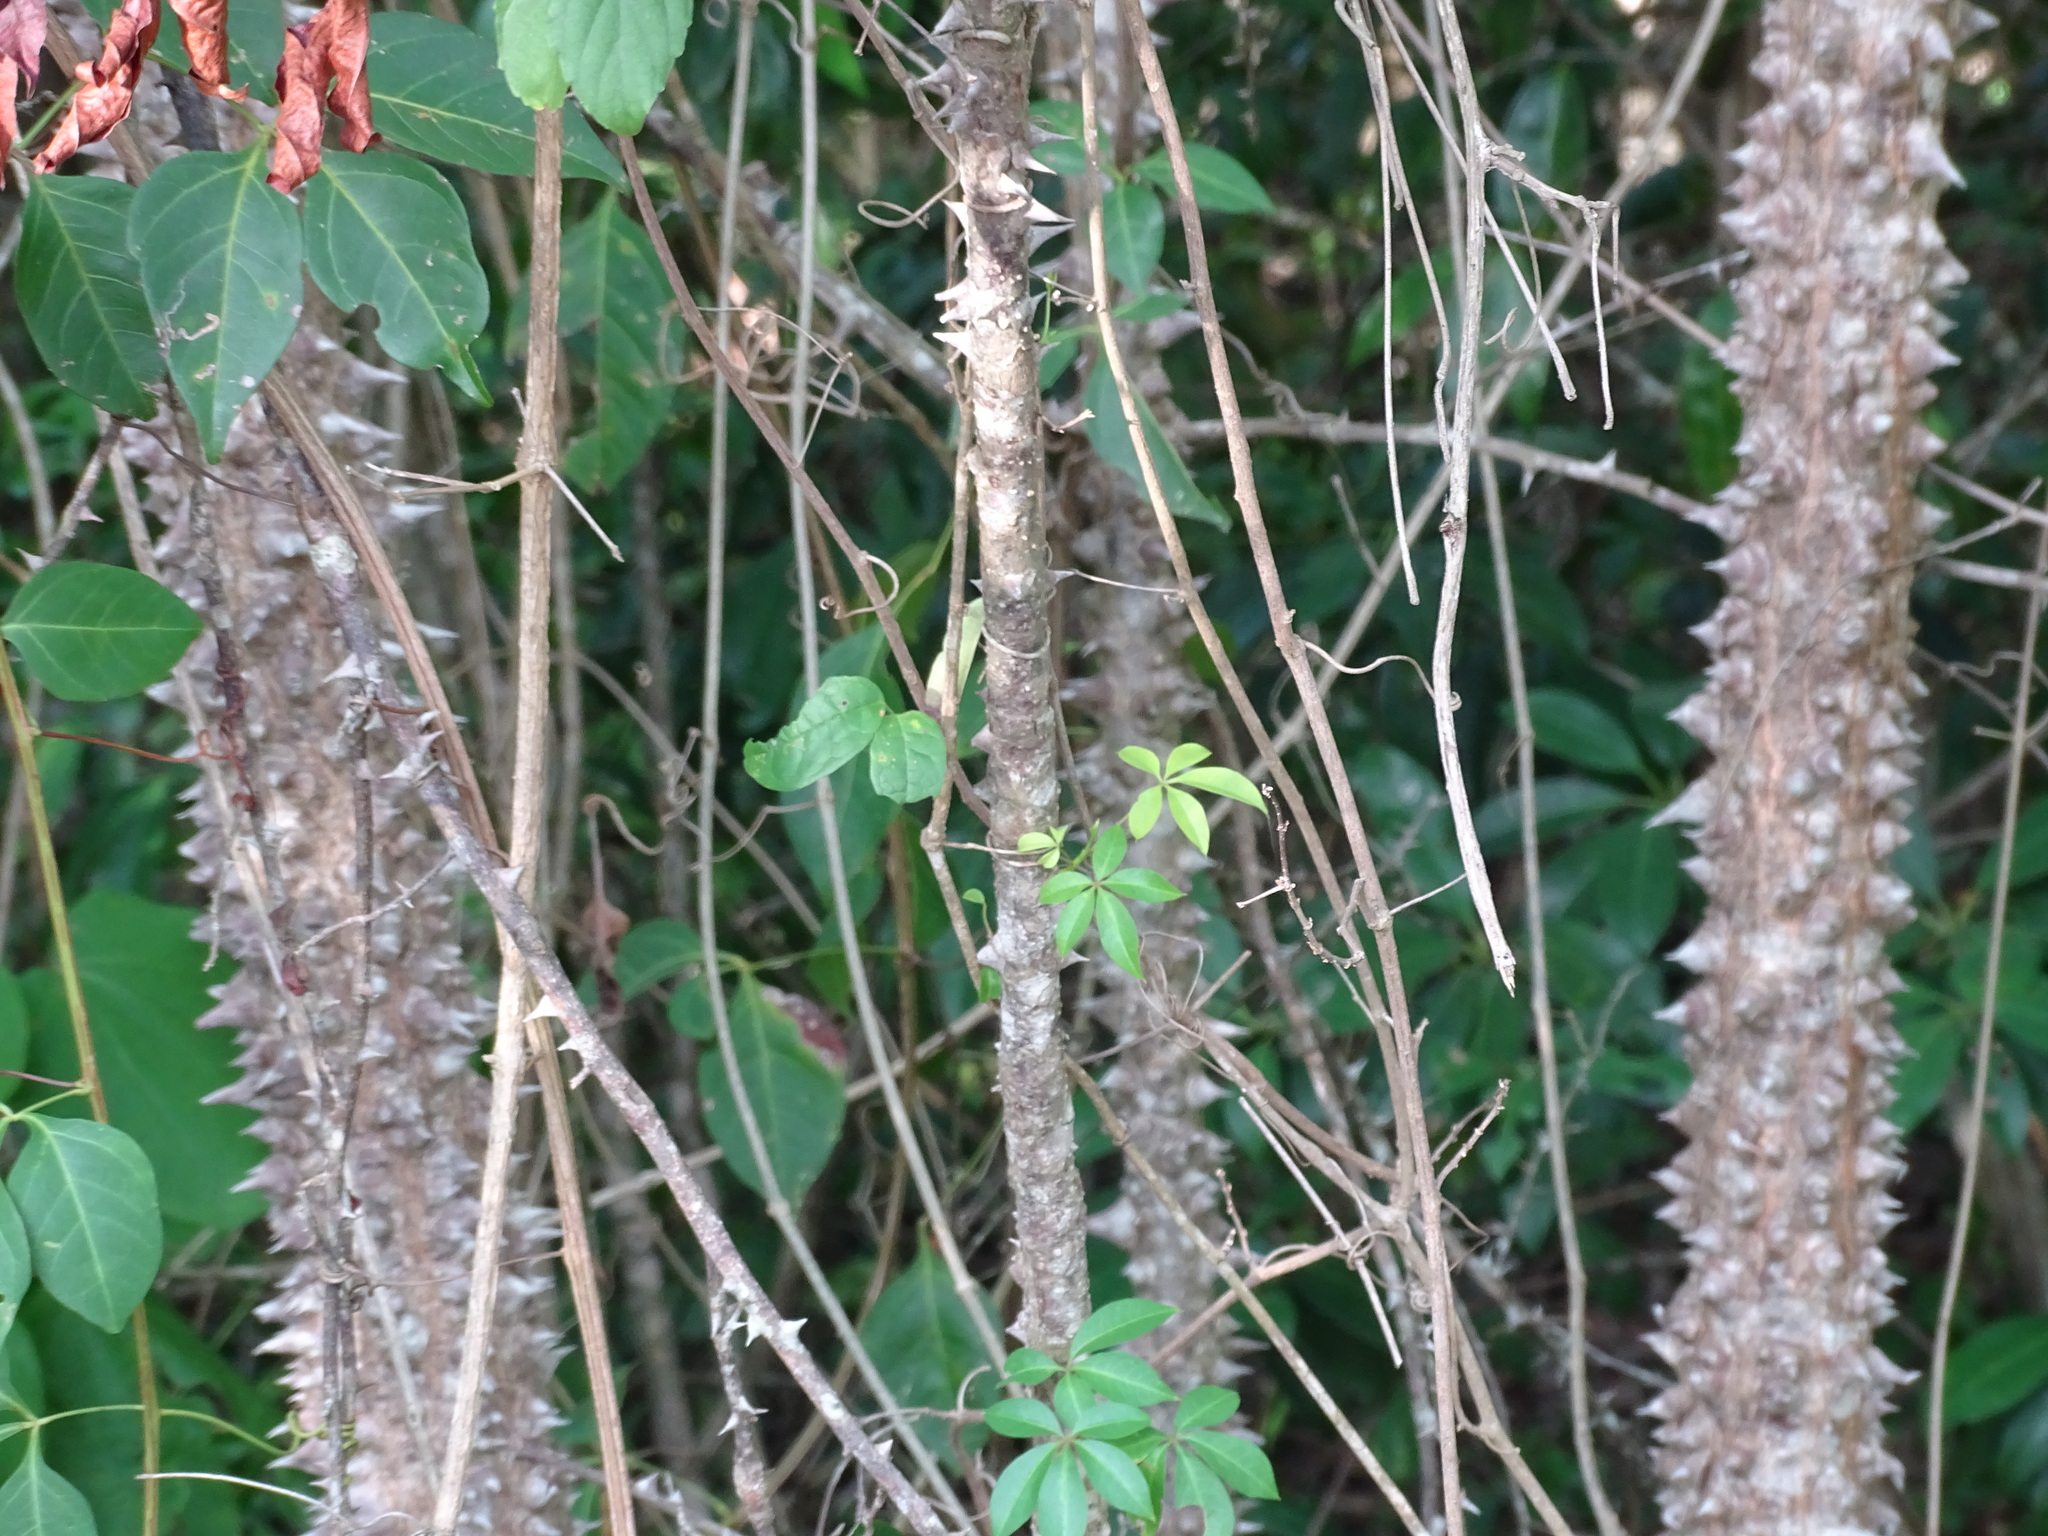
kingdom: Plantae
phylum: Tracheophyta
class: Magnoliopsida
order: Malvales
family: Malvaceae
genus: Ceiba
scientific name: Ceiba aesculifolia
